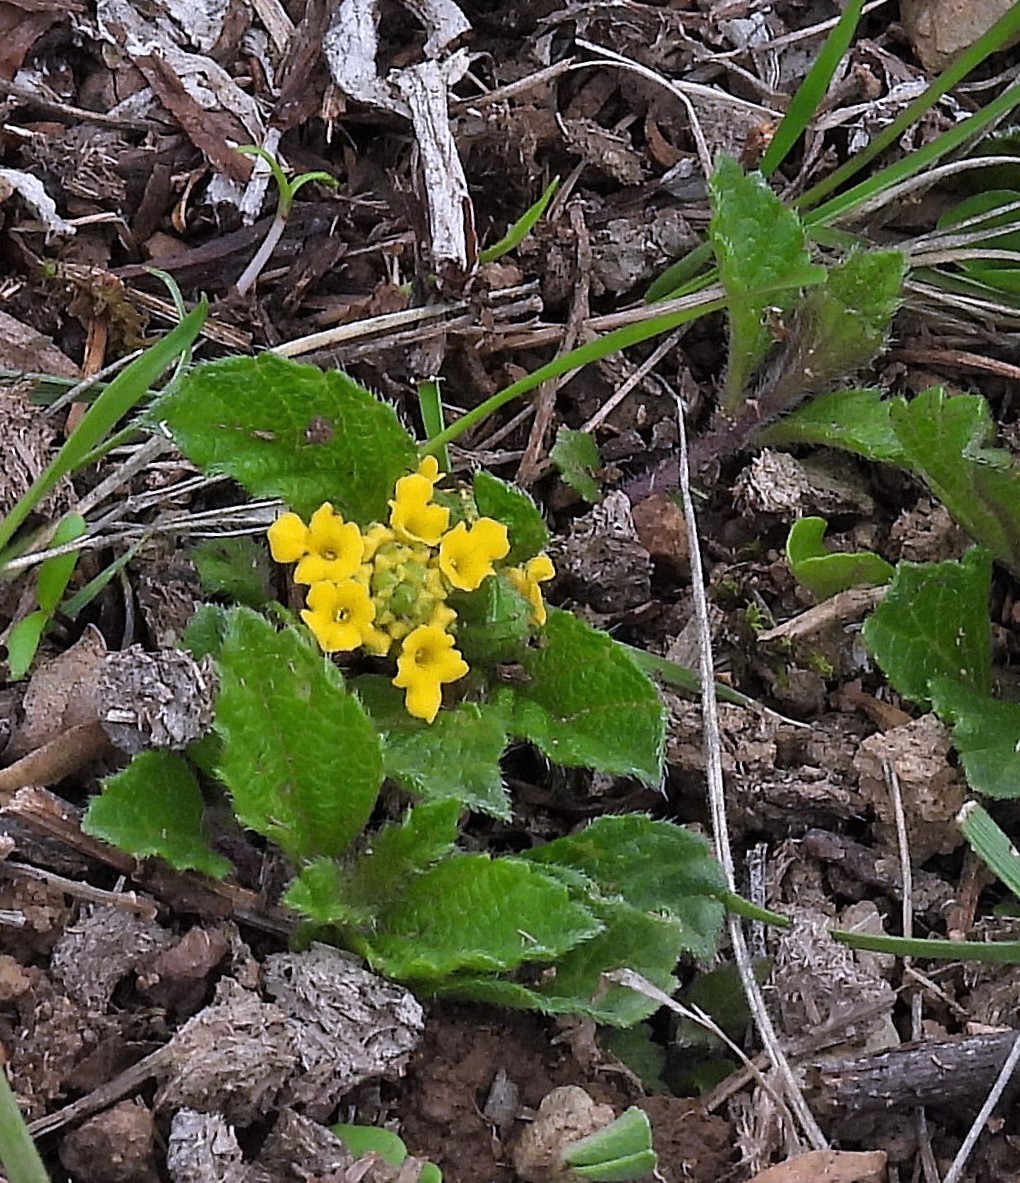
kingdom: Plantae
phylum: Tracheophyta
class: Magnoliopsida
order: Lamiales
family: Verbenaceae
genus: Lippia
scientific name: Lippia turnerifolia
